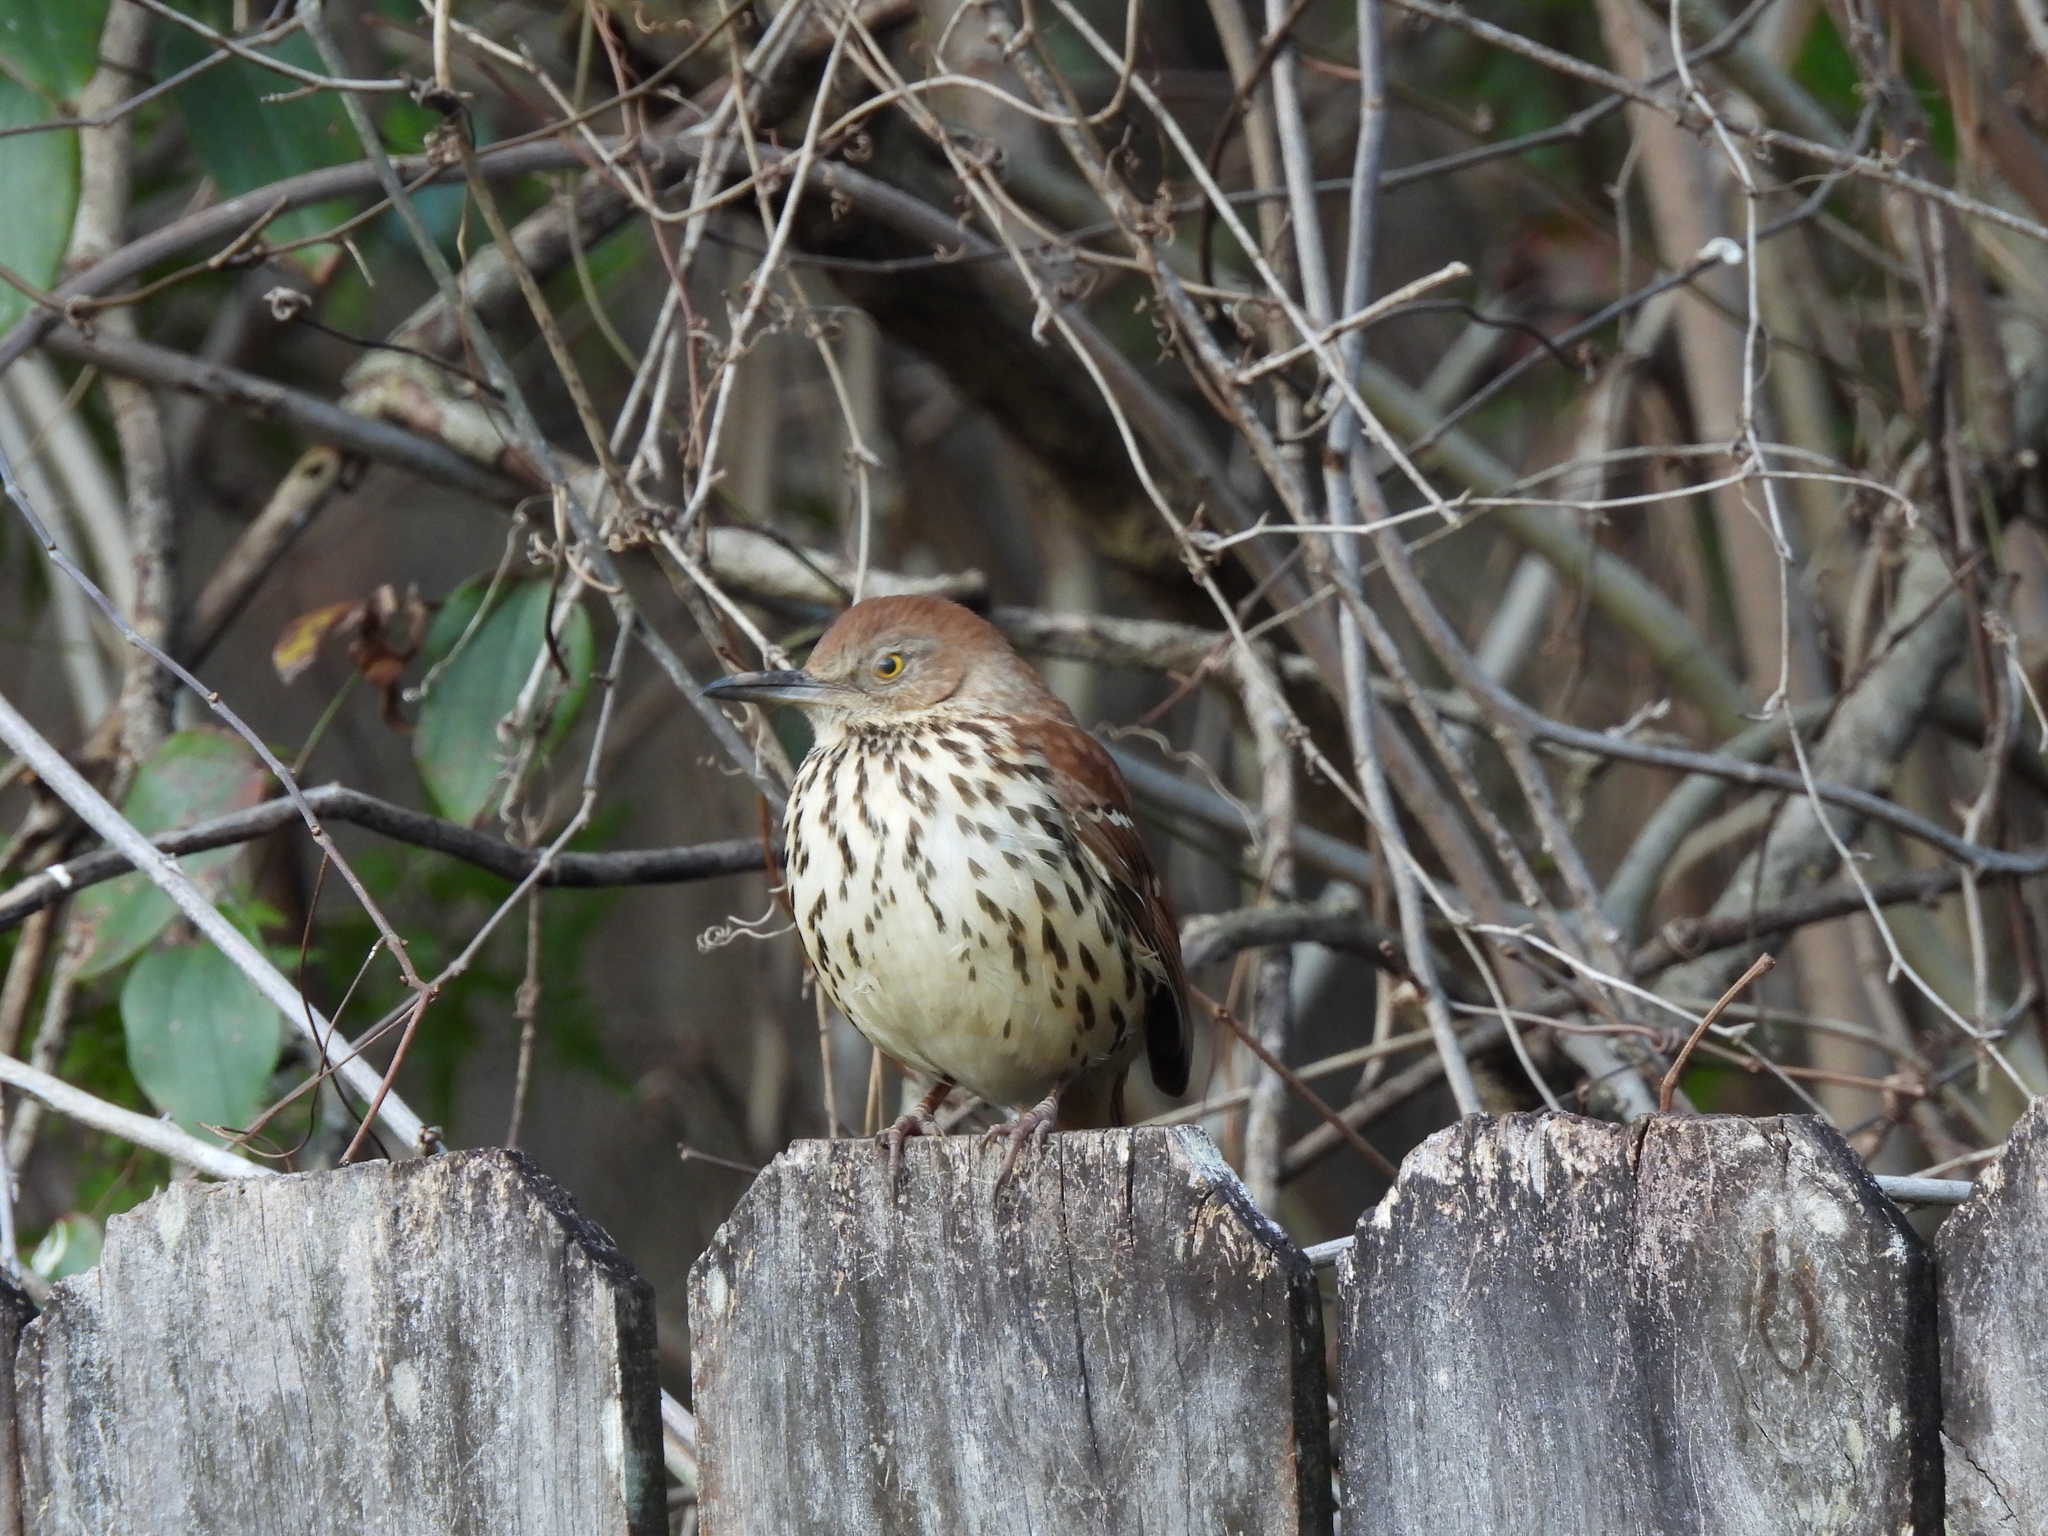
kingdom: Animalia
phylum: Chordata
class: Aves
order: Passeriformes
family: Mimidae
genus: Toxostoma
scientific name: Toxostoma rufum
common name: Brown thrasher
